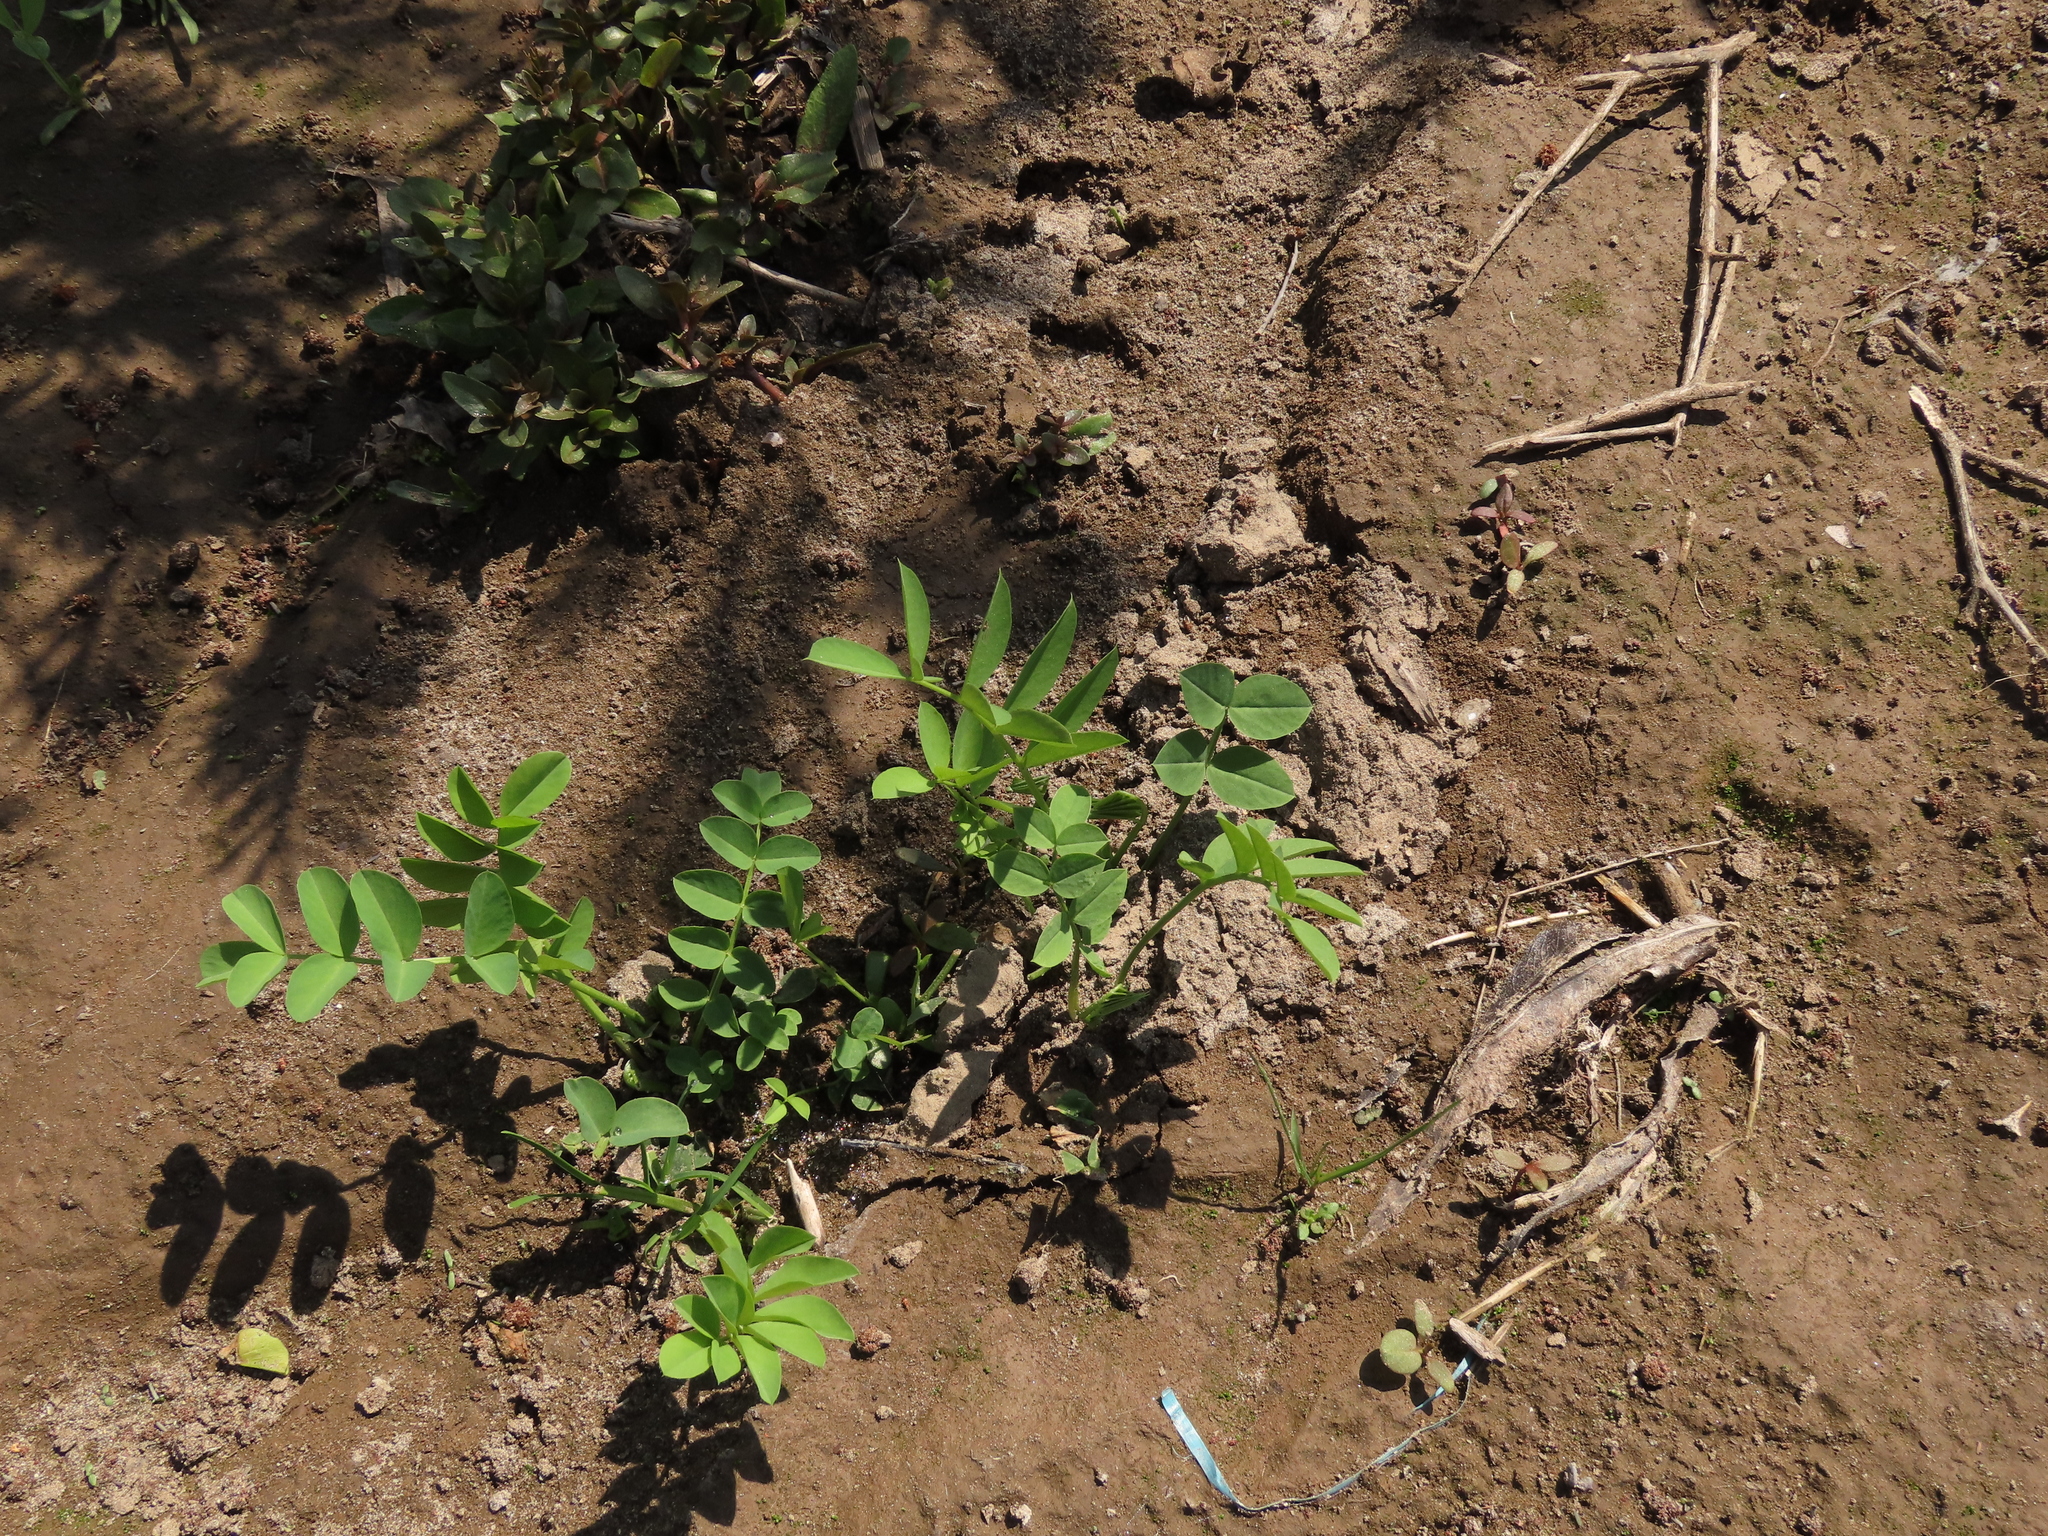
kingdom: Plantae
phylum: Tracheophyta
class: Magnoliopsida
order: Fabales
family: Fabaceae
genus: Galega
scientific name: Galega officinalis
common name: Goat's-rue
